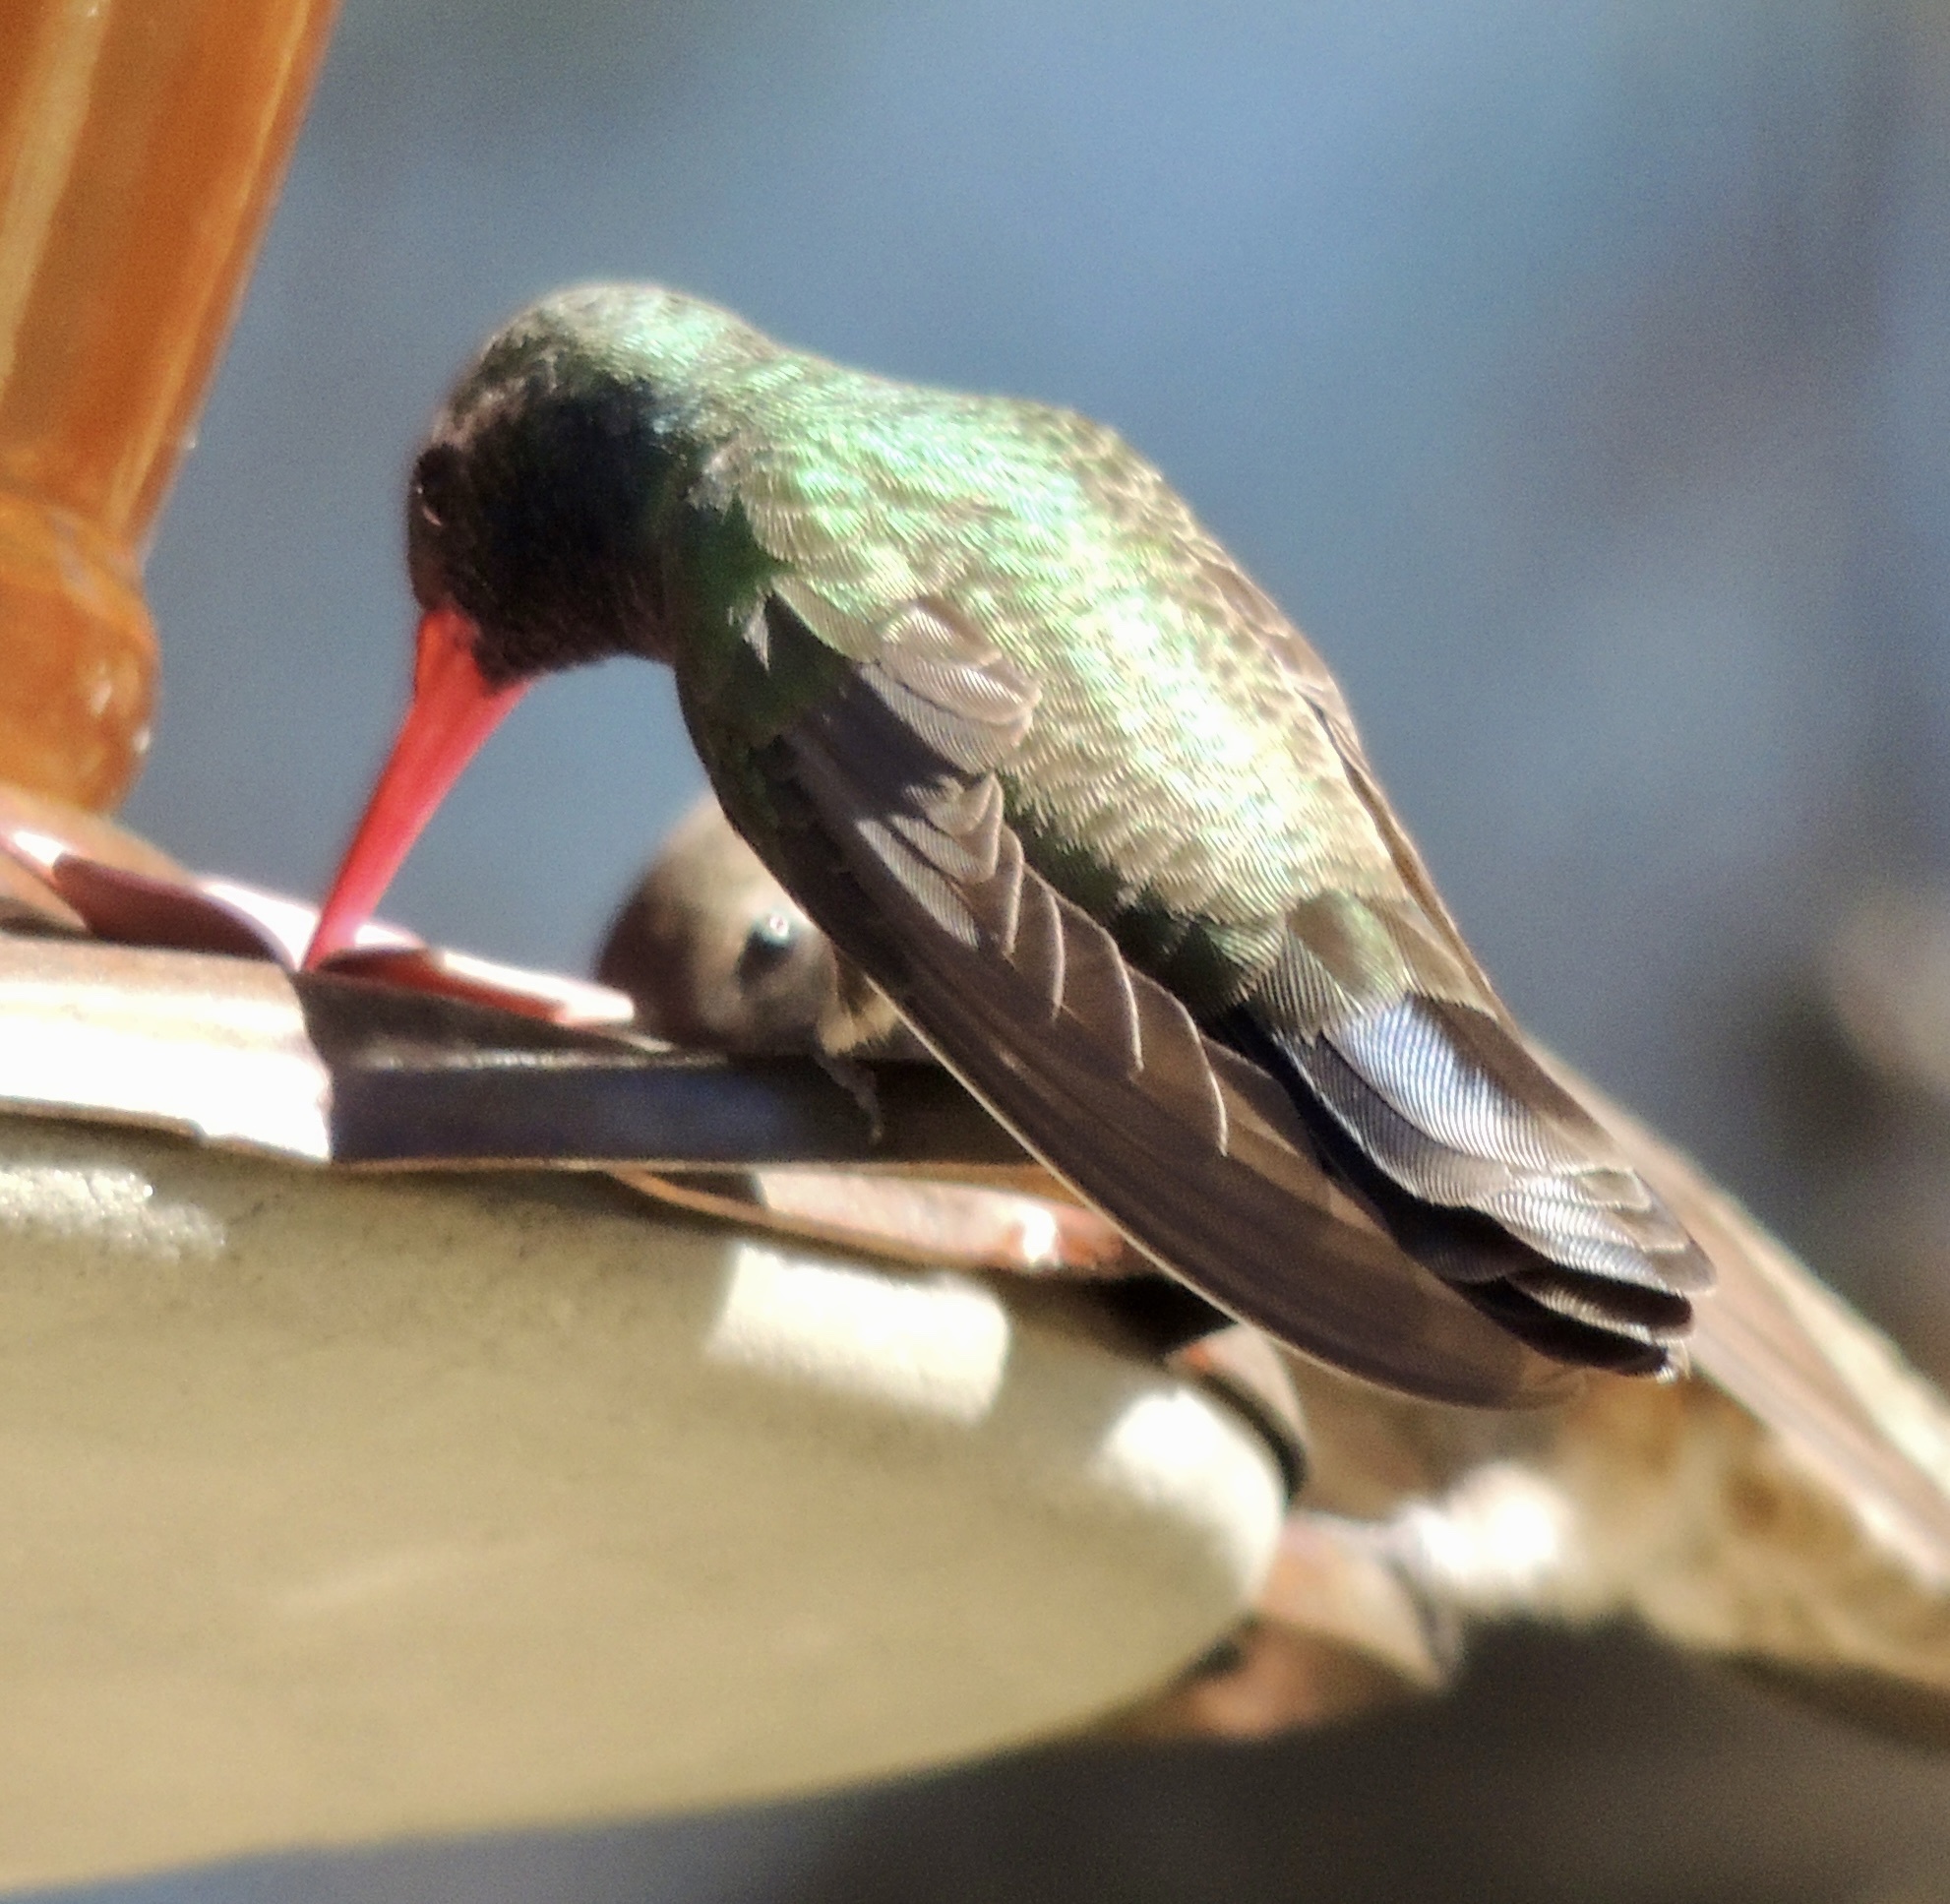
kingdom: Animalia
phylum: Chordata
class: Aves
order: Apodiformes
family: Trochilidae
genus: Cynanthus
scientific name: Cynanthus latirostris
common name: Broad-billed hummingbird
